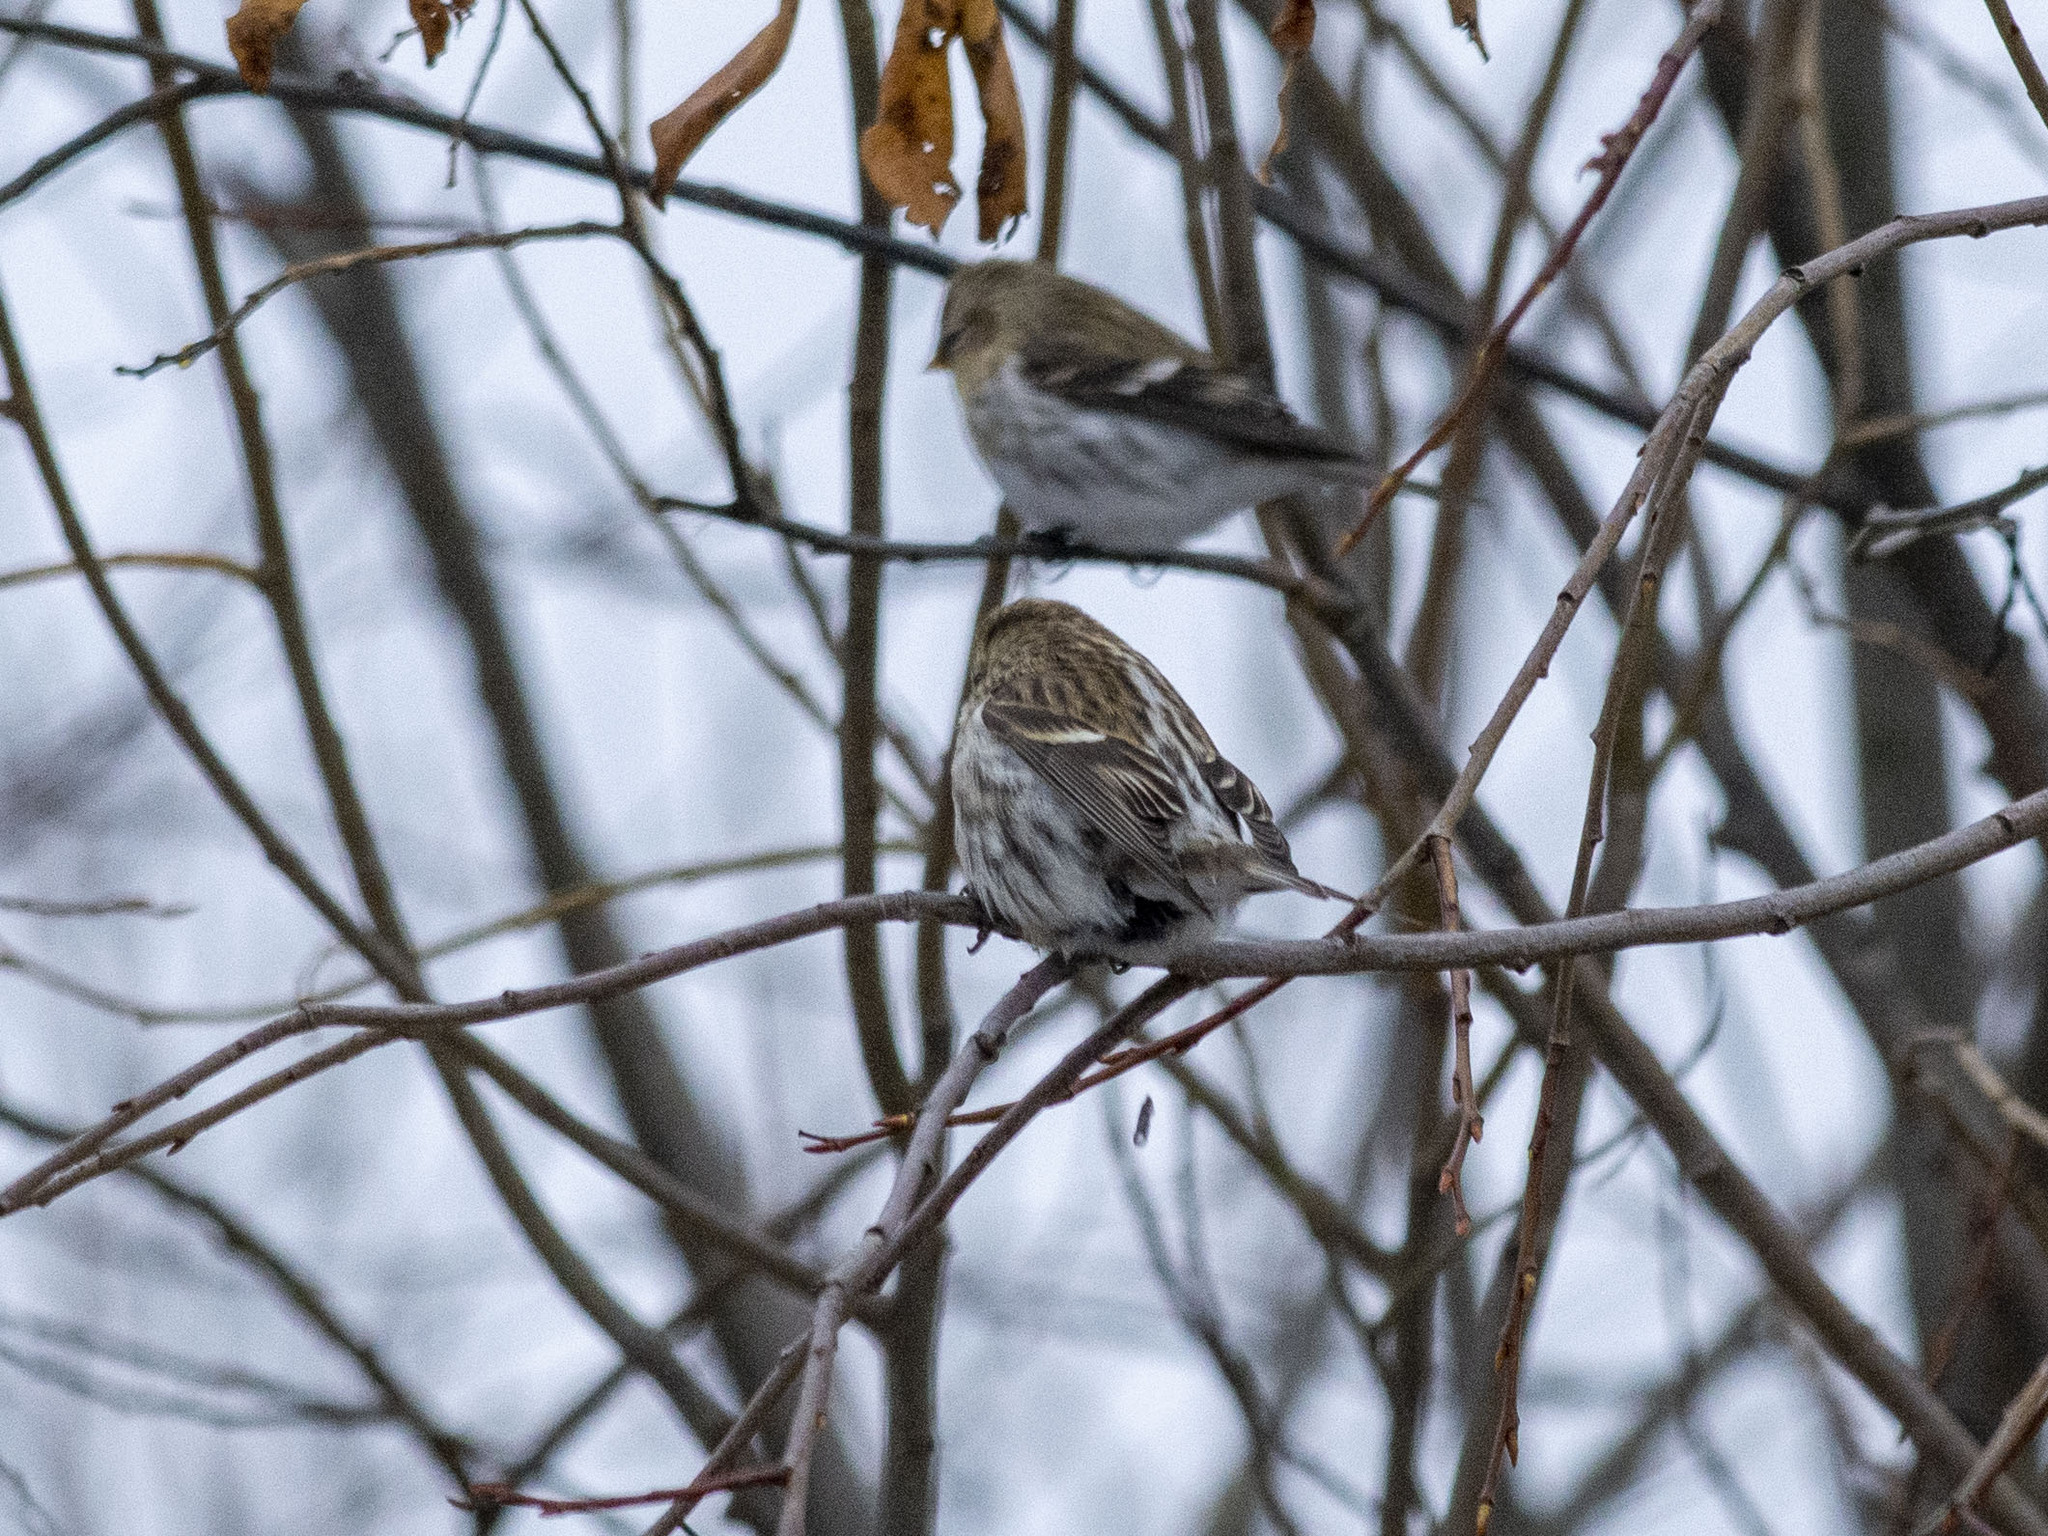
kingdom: Animalia
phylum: Chordata
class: Aves
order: Passeriformes
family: Fringillidae
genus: Acanthis
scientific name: Acanthis flammea
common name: Common redpoll
